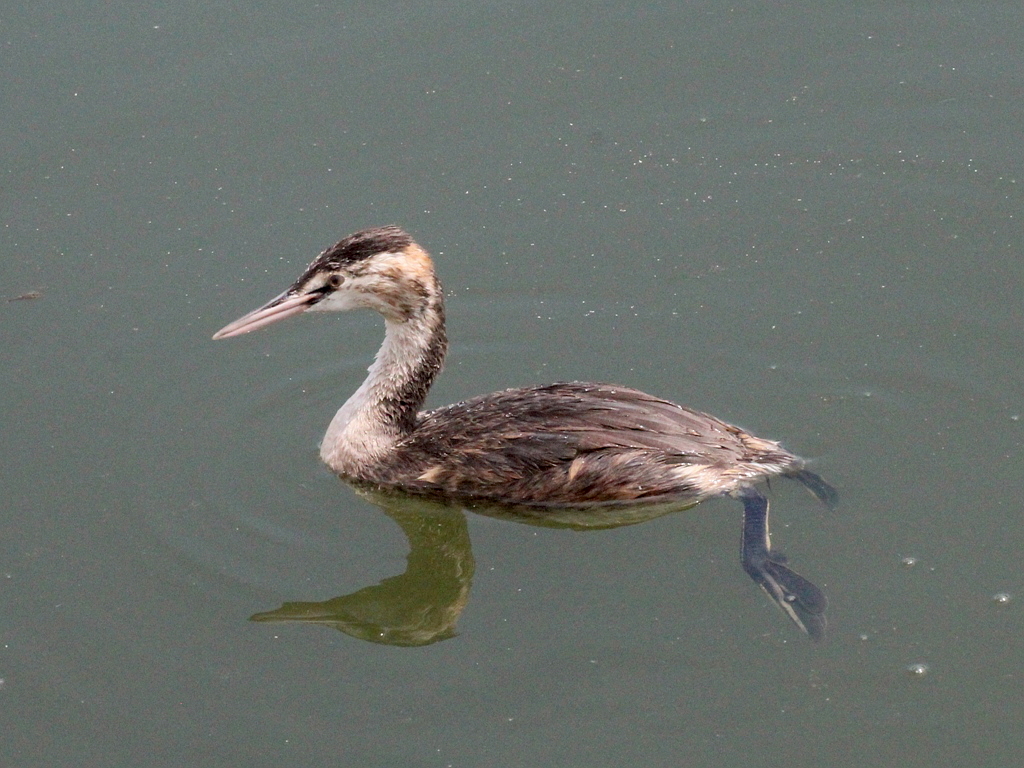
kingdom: Animalia
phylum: Chordata
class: Aves
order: Podicipediformes
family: Podicipedidae
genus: Podiceps
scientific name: Podiceps cristatus
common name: Great crested grebe
